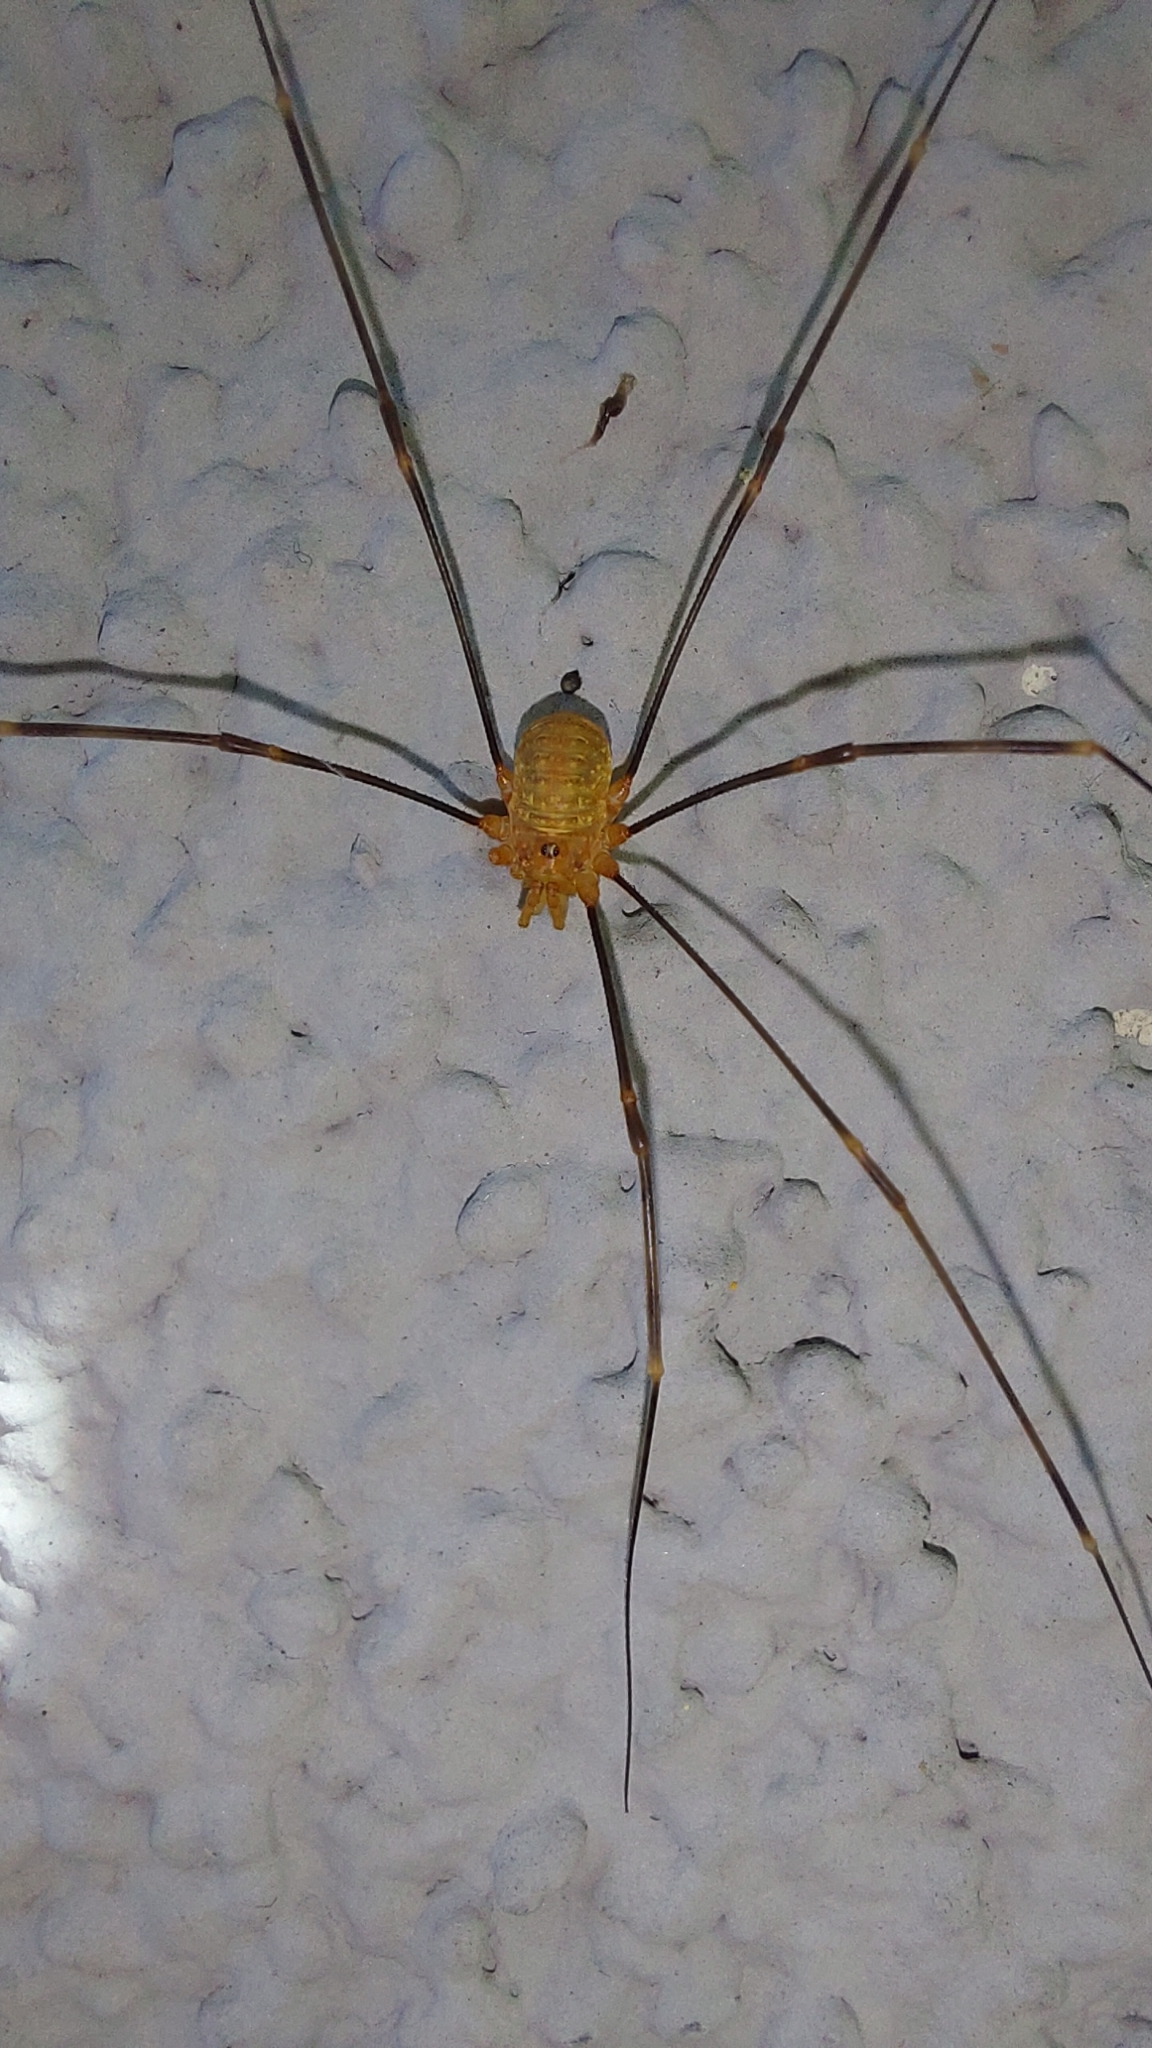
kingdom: Animalia
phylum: Arthropoda
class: Arachnida
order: Opiliones
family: Phalangiidae
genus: Opilio
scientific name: Opilio canestrinii
